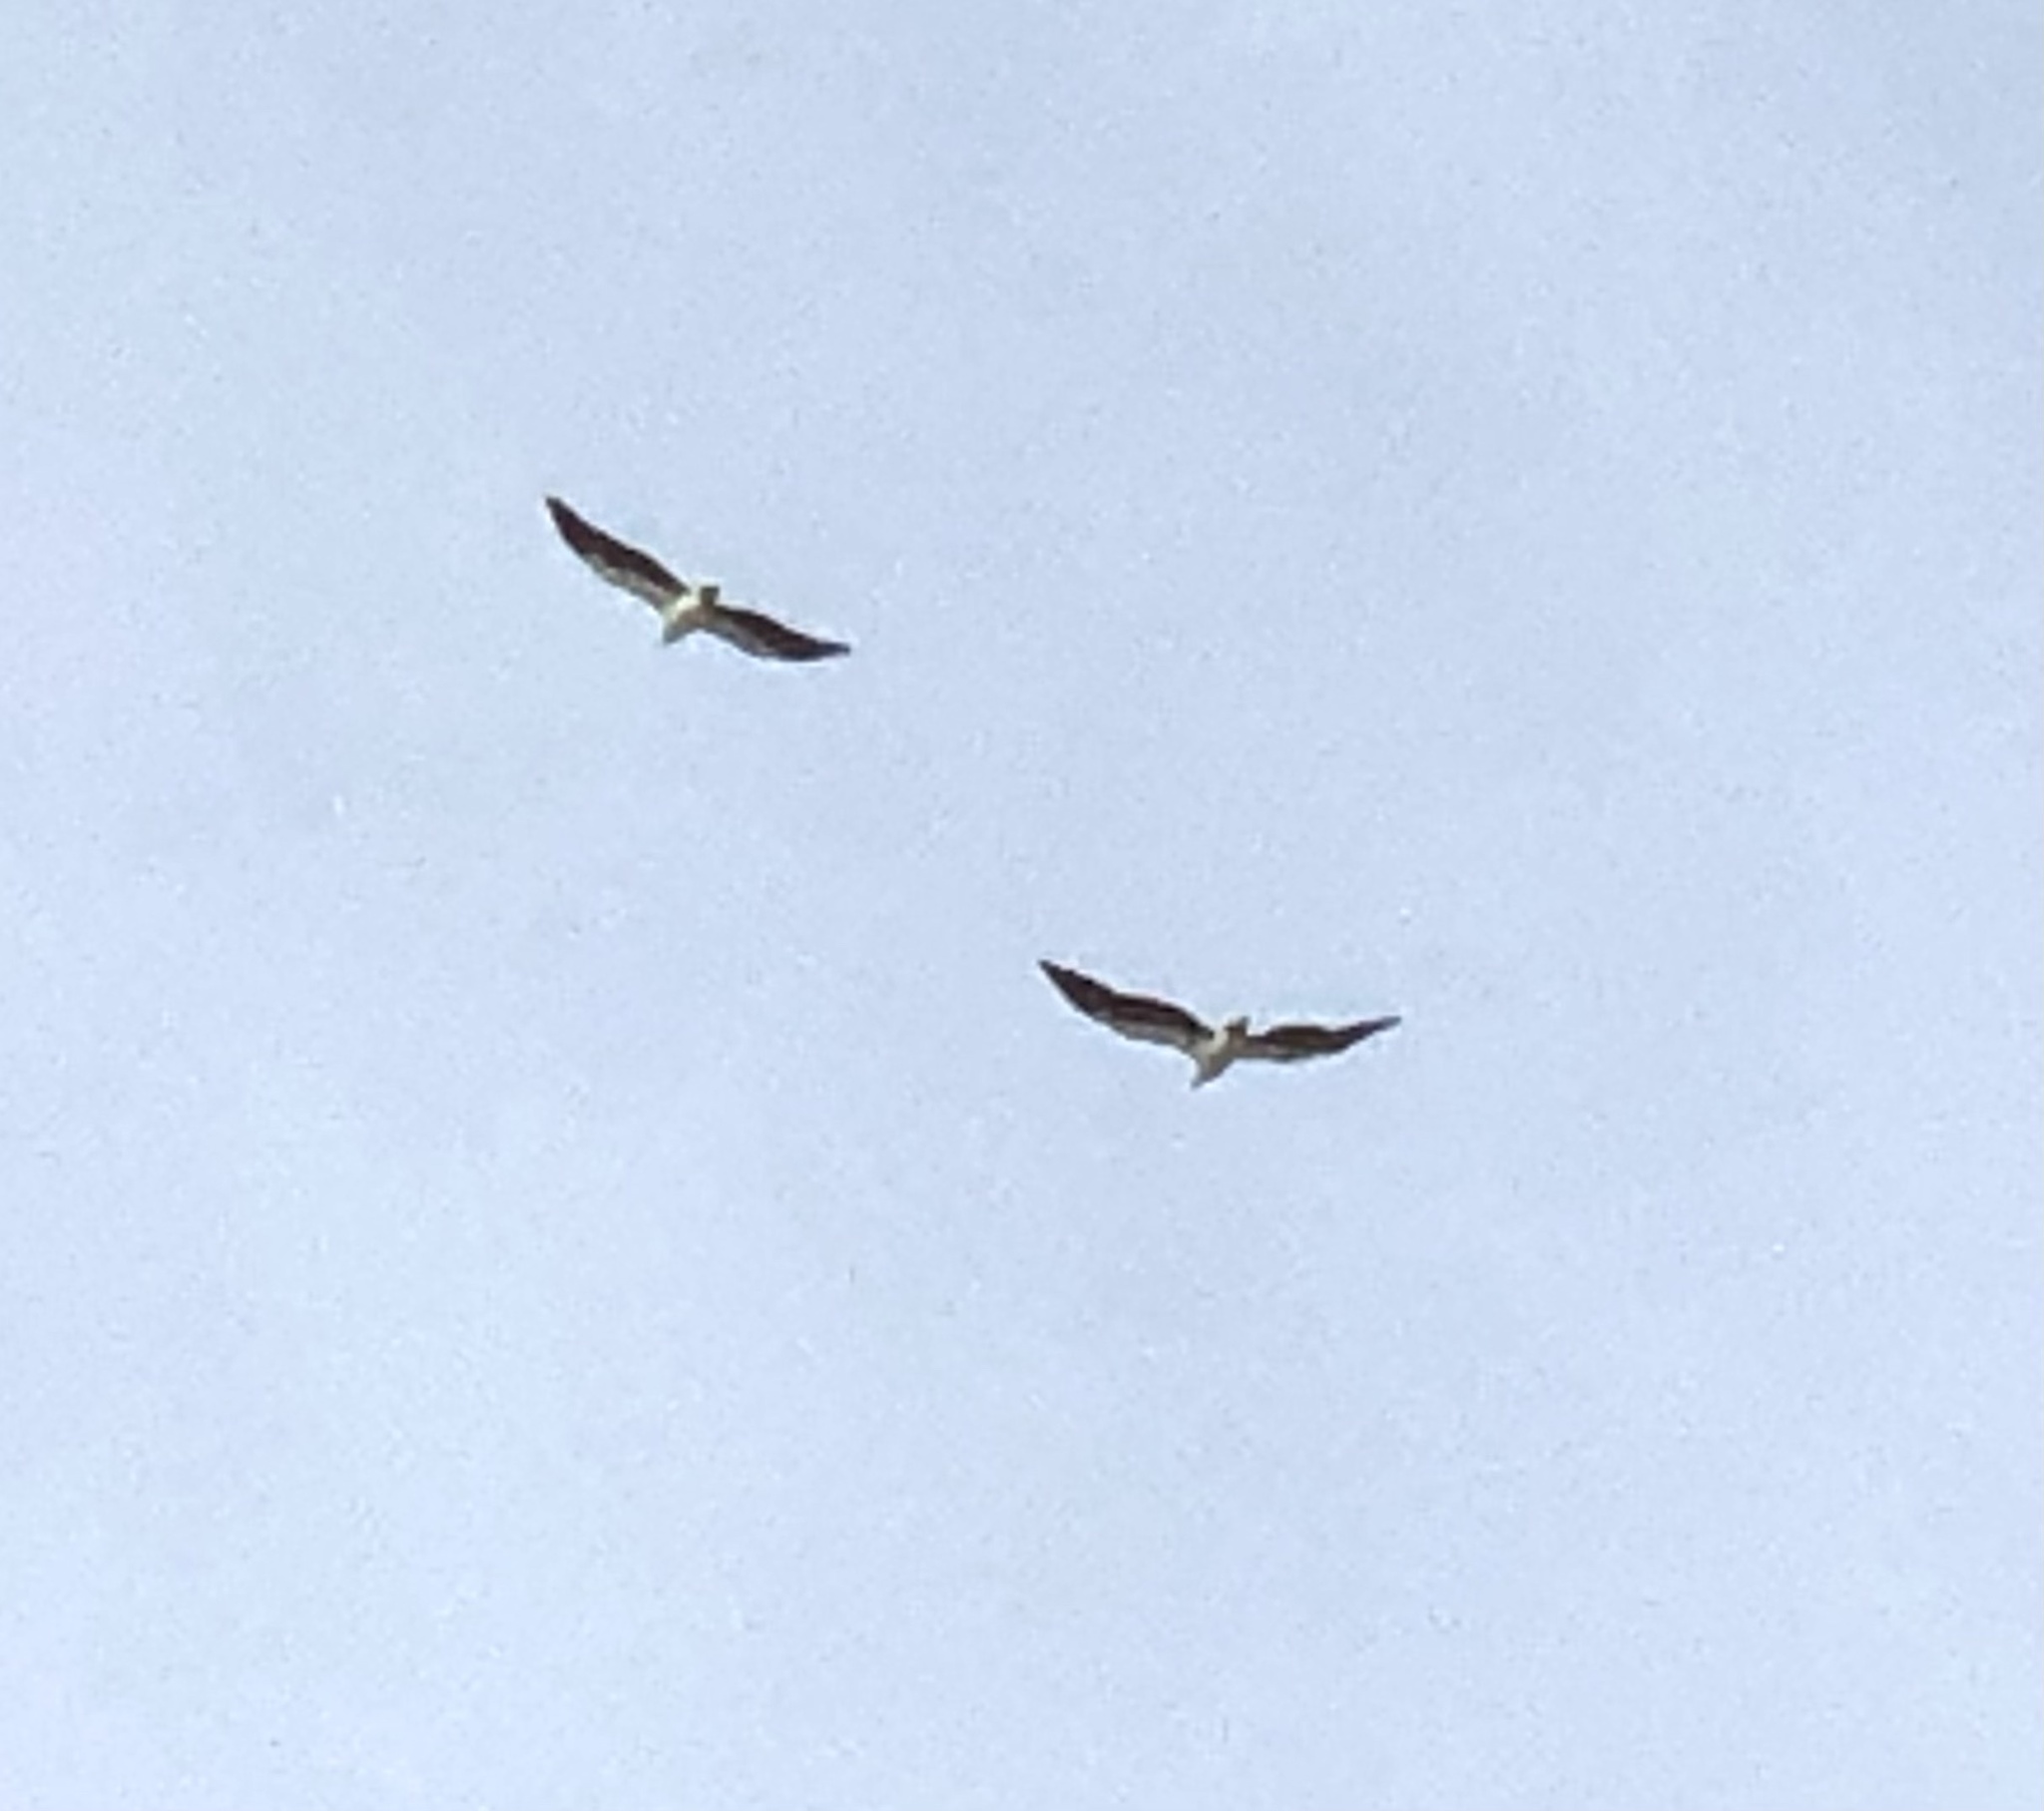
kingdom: Animalia
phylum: Chordata
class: Aves
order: Accipitriformes
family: Accipitridae
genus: Haliaeetus
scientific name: Haliaeetus leucogaster
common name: White-bellied sea eagle
